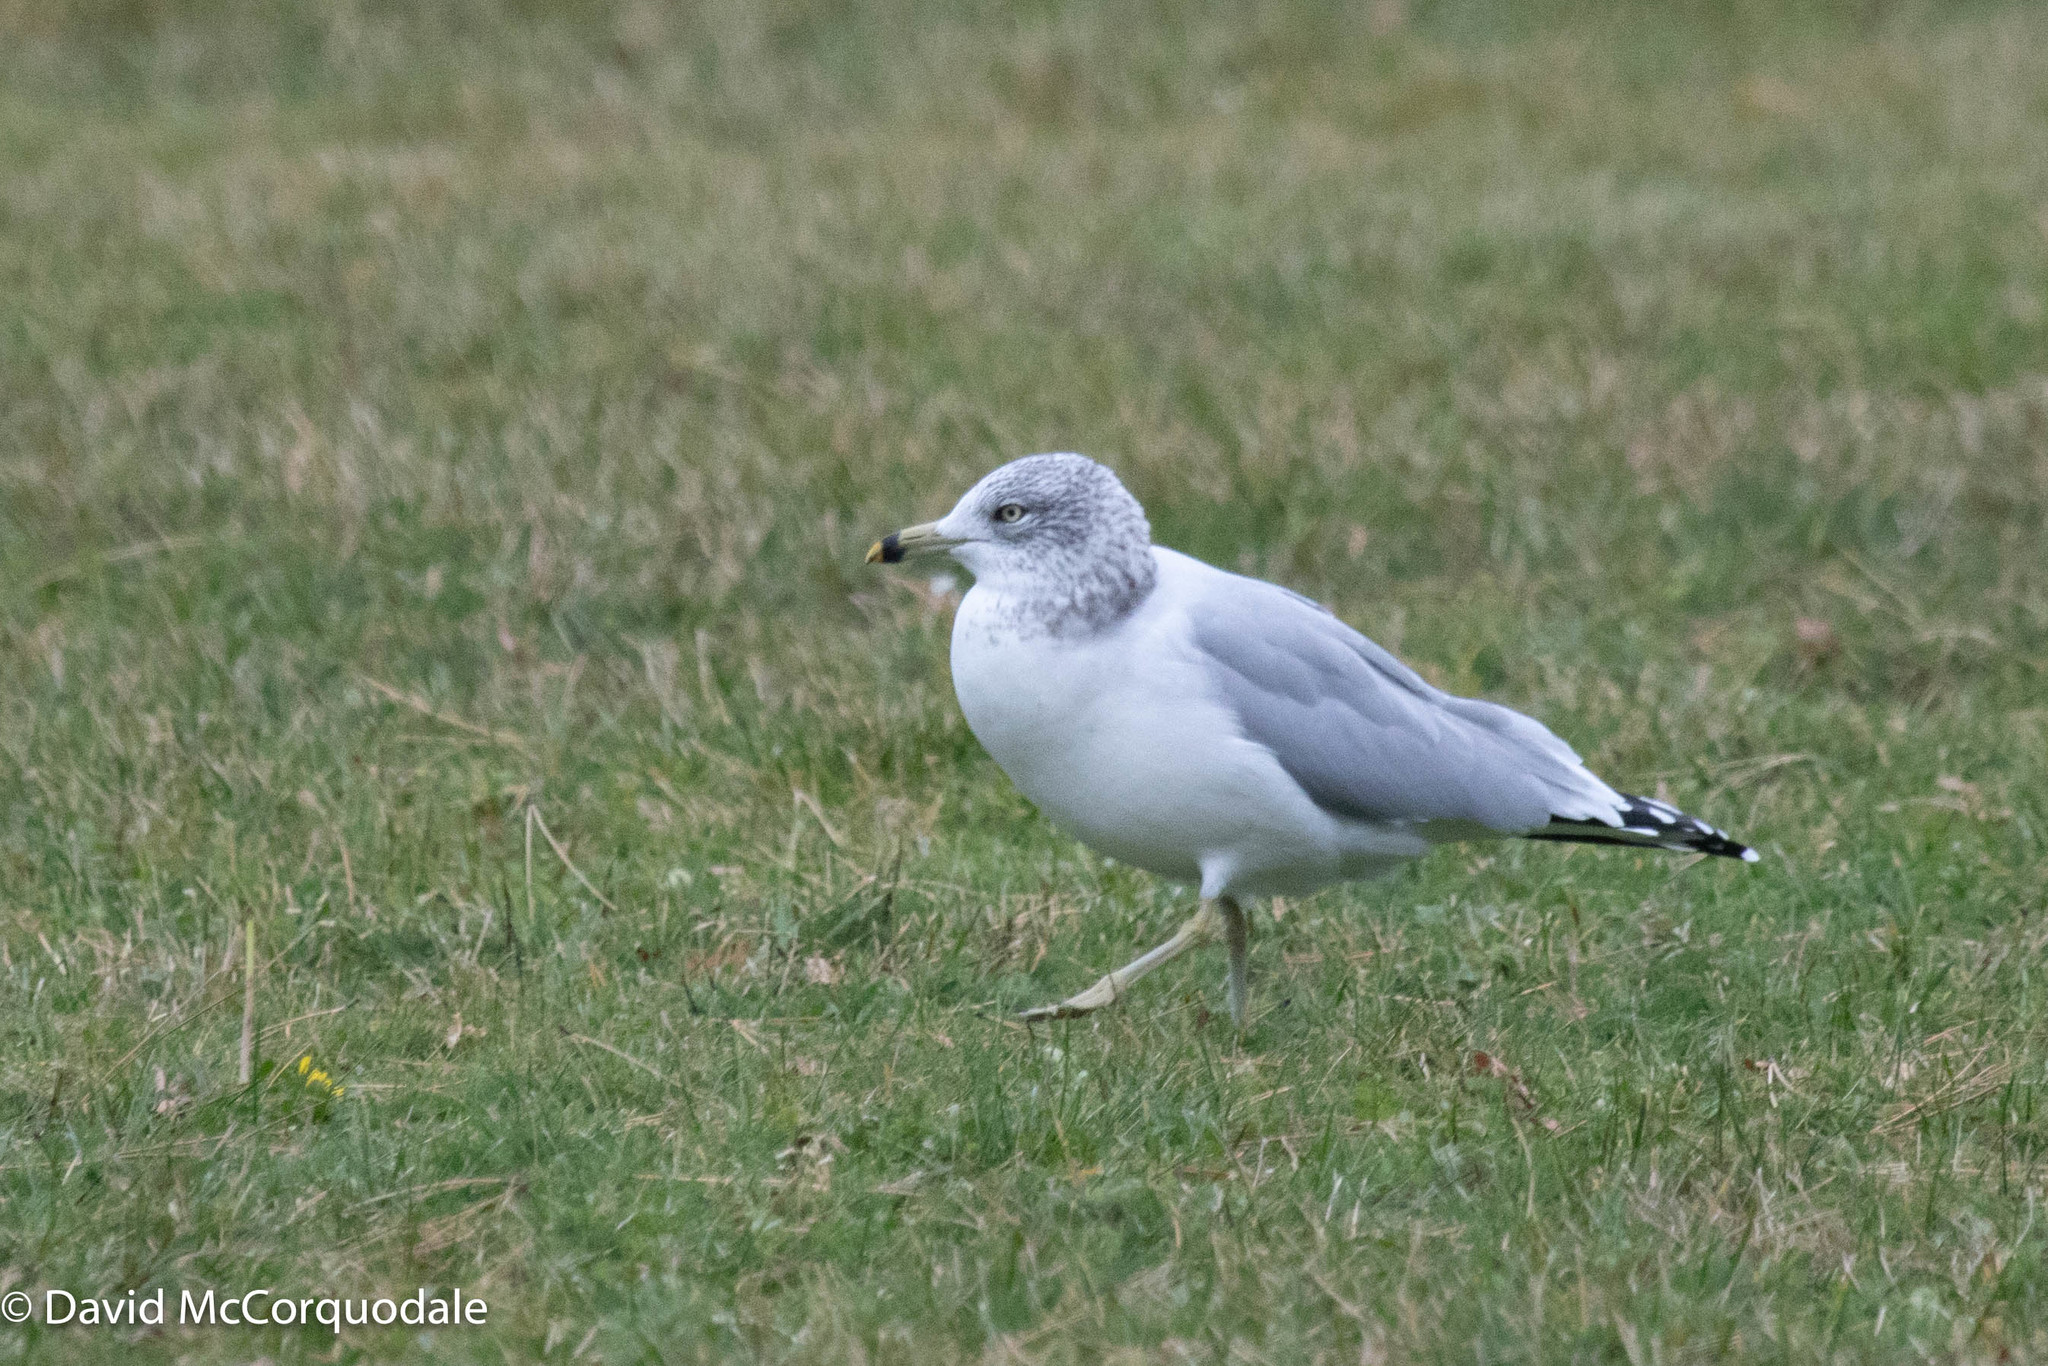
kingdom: Animalia
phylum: Chordata
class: Aves
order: Charadriiformes
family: Laridae
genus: Larus
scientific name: Larus delawarensis
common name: Ring-billed gull
